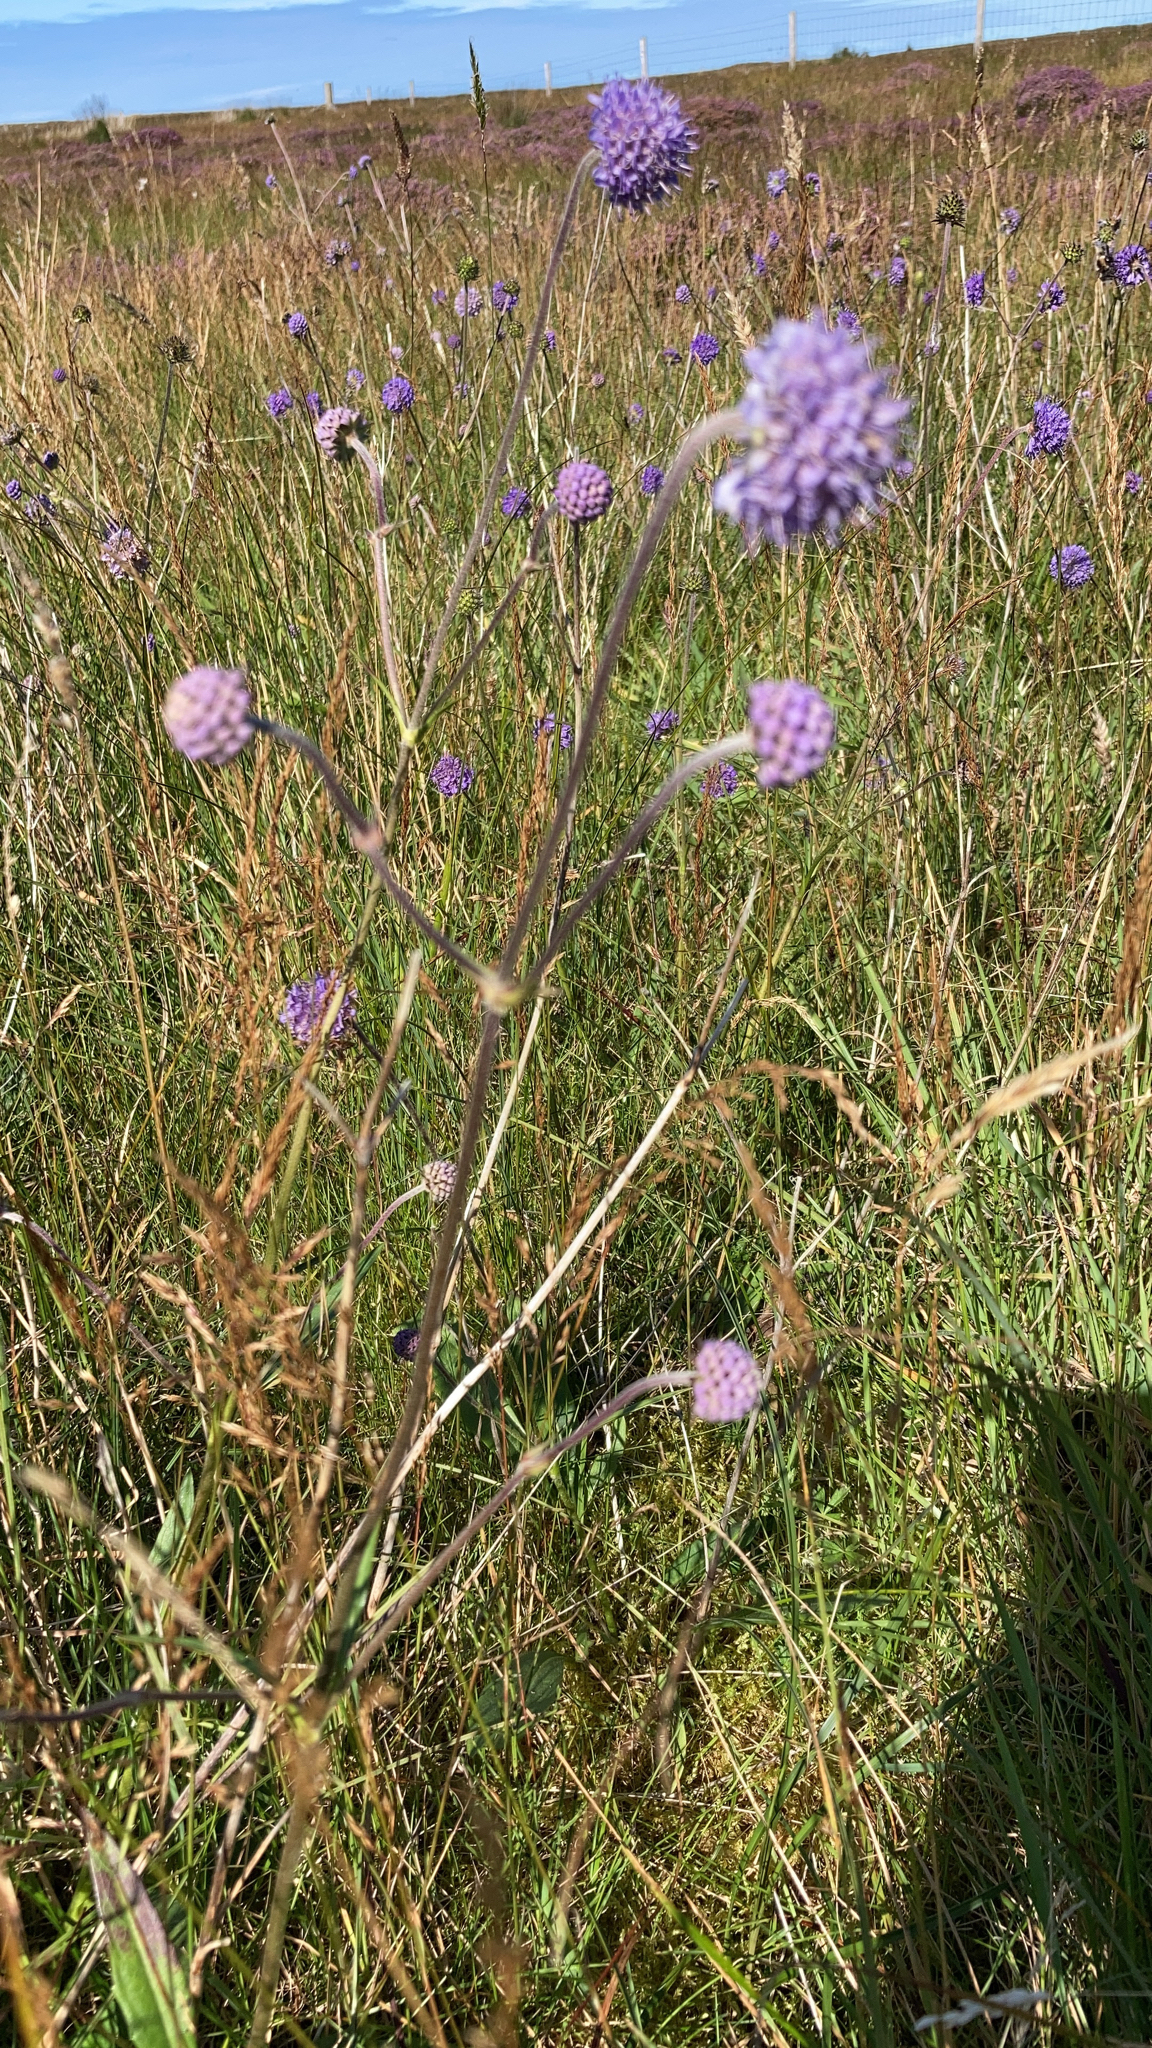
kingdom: Plantae
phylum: Tracheophyta
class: Magnoliopsida
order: Dipsacales
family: Caprifoliaceae
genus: Succisa
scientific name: Succisa pratensis
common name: Devil's-bit
